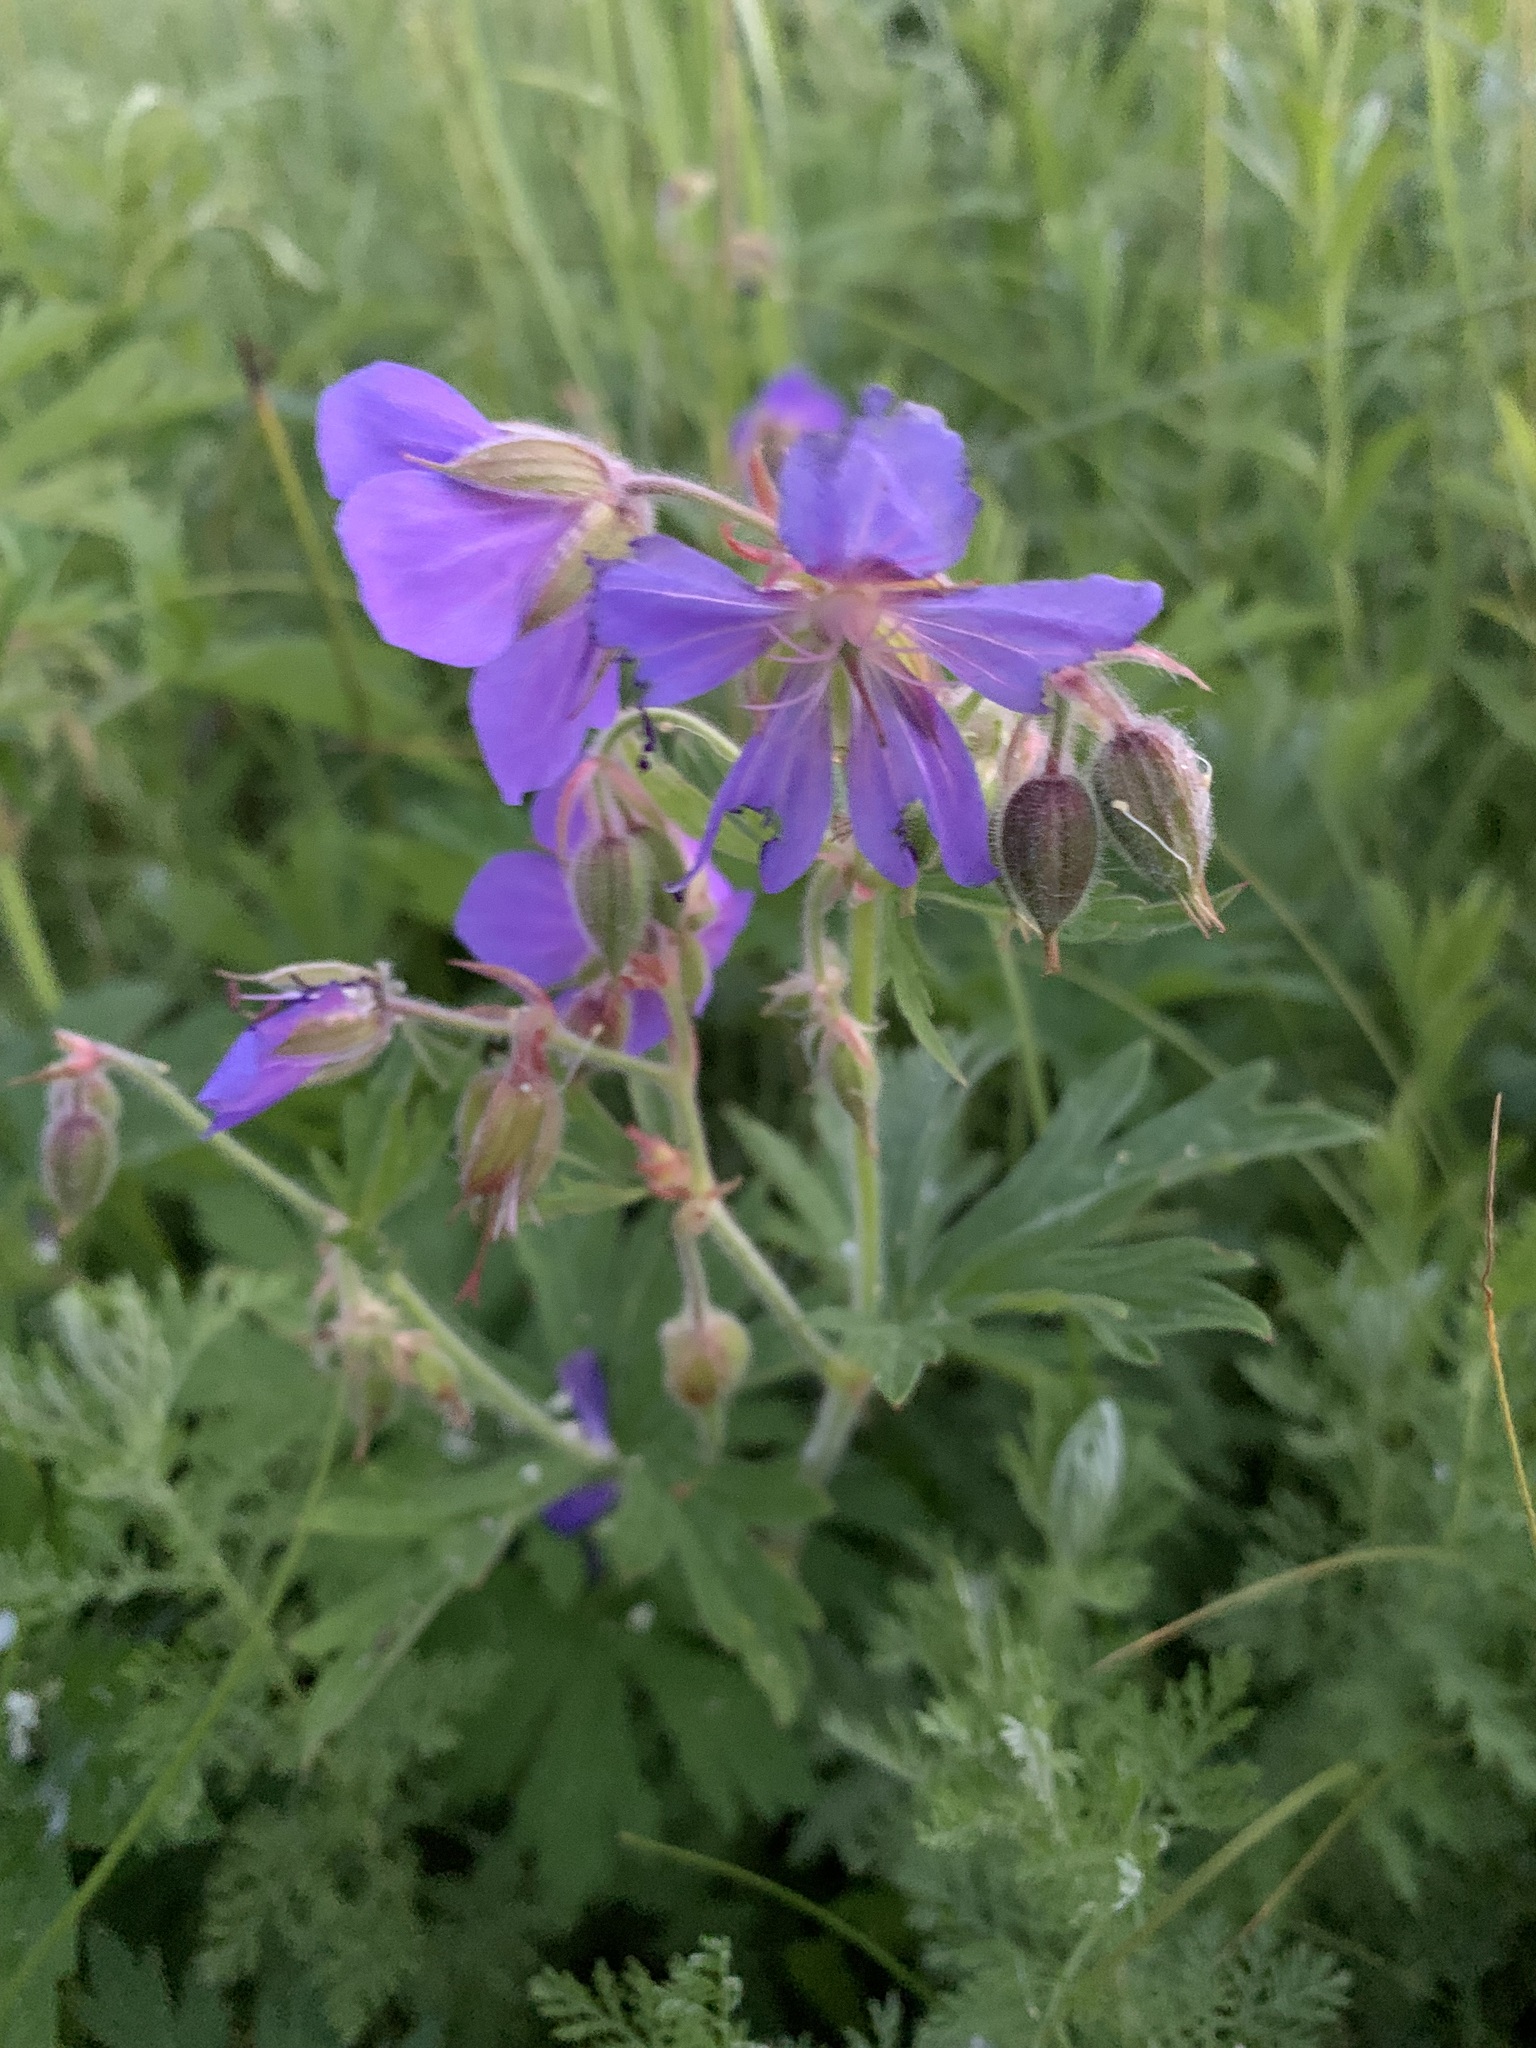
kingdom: Plantae
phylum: Tracheophyta
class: Magnoliopsida
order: Geraniales
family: Geraniaceae
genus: Geranium
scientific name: Geranium pratense
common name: Meadow crane's-bill
